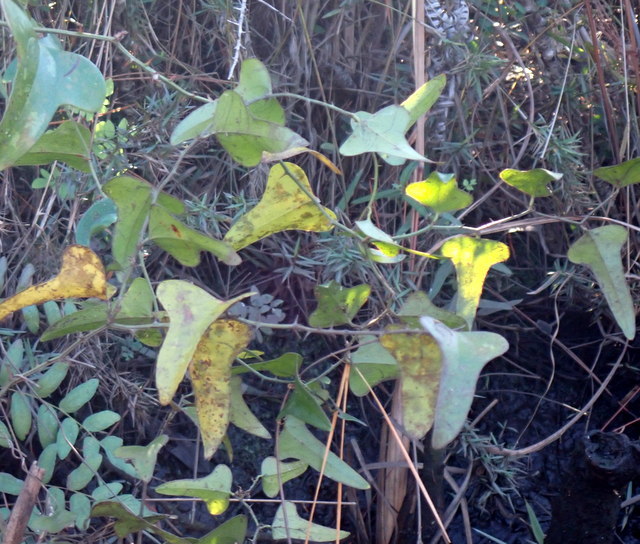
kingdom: Plantae
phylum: Tracheophyta
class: Liliopsida
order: Liliales
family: Smilacaceae
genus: Smilax
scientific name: Smilax bona-nox
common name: Catbrier
